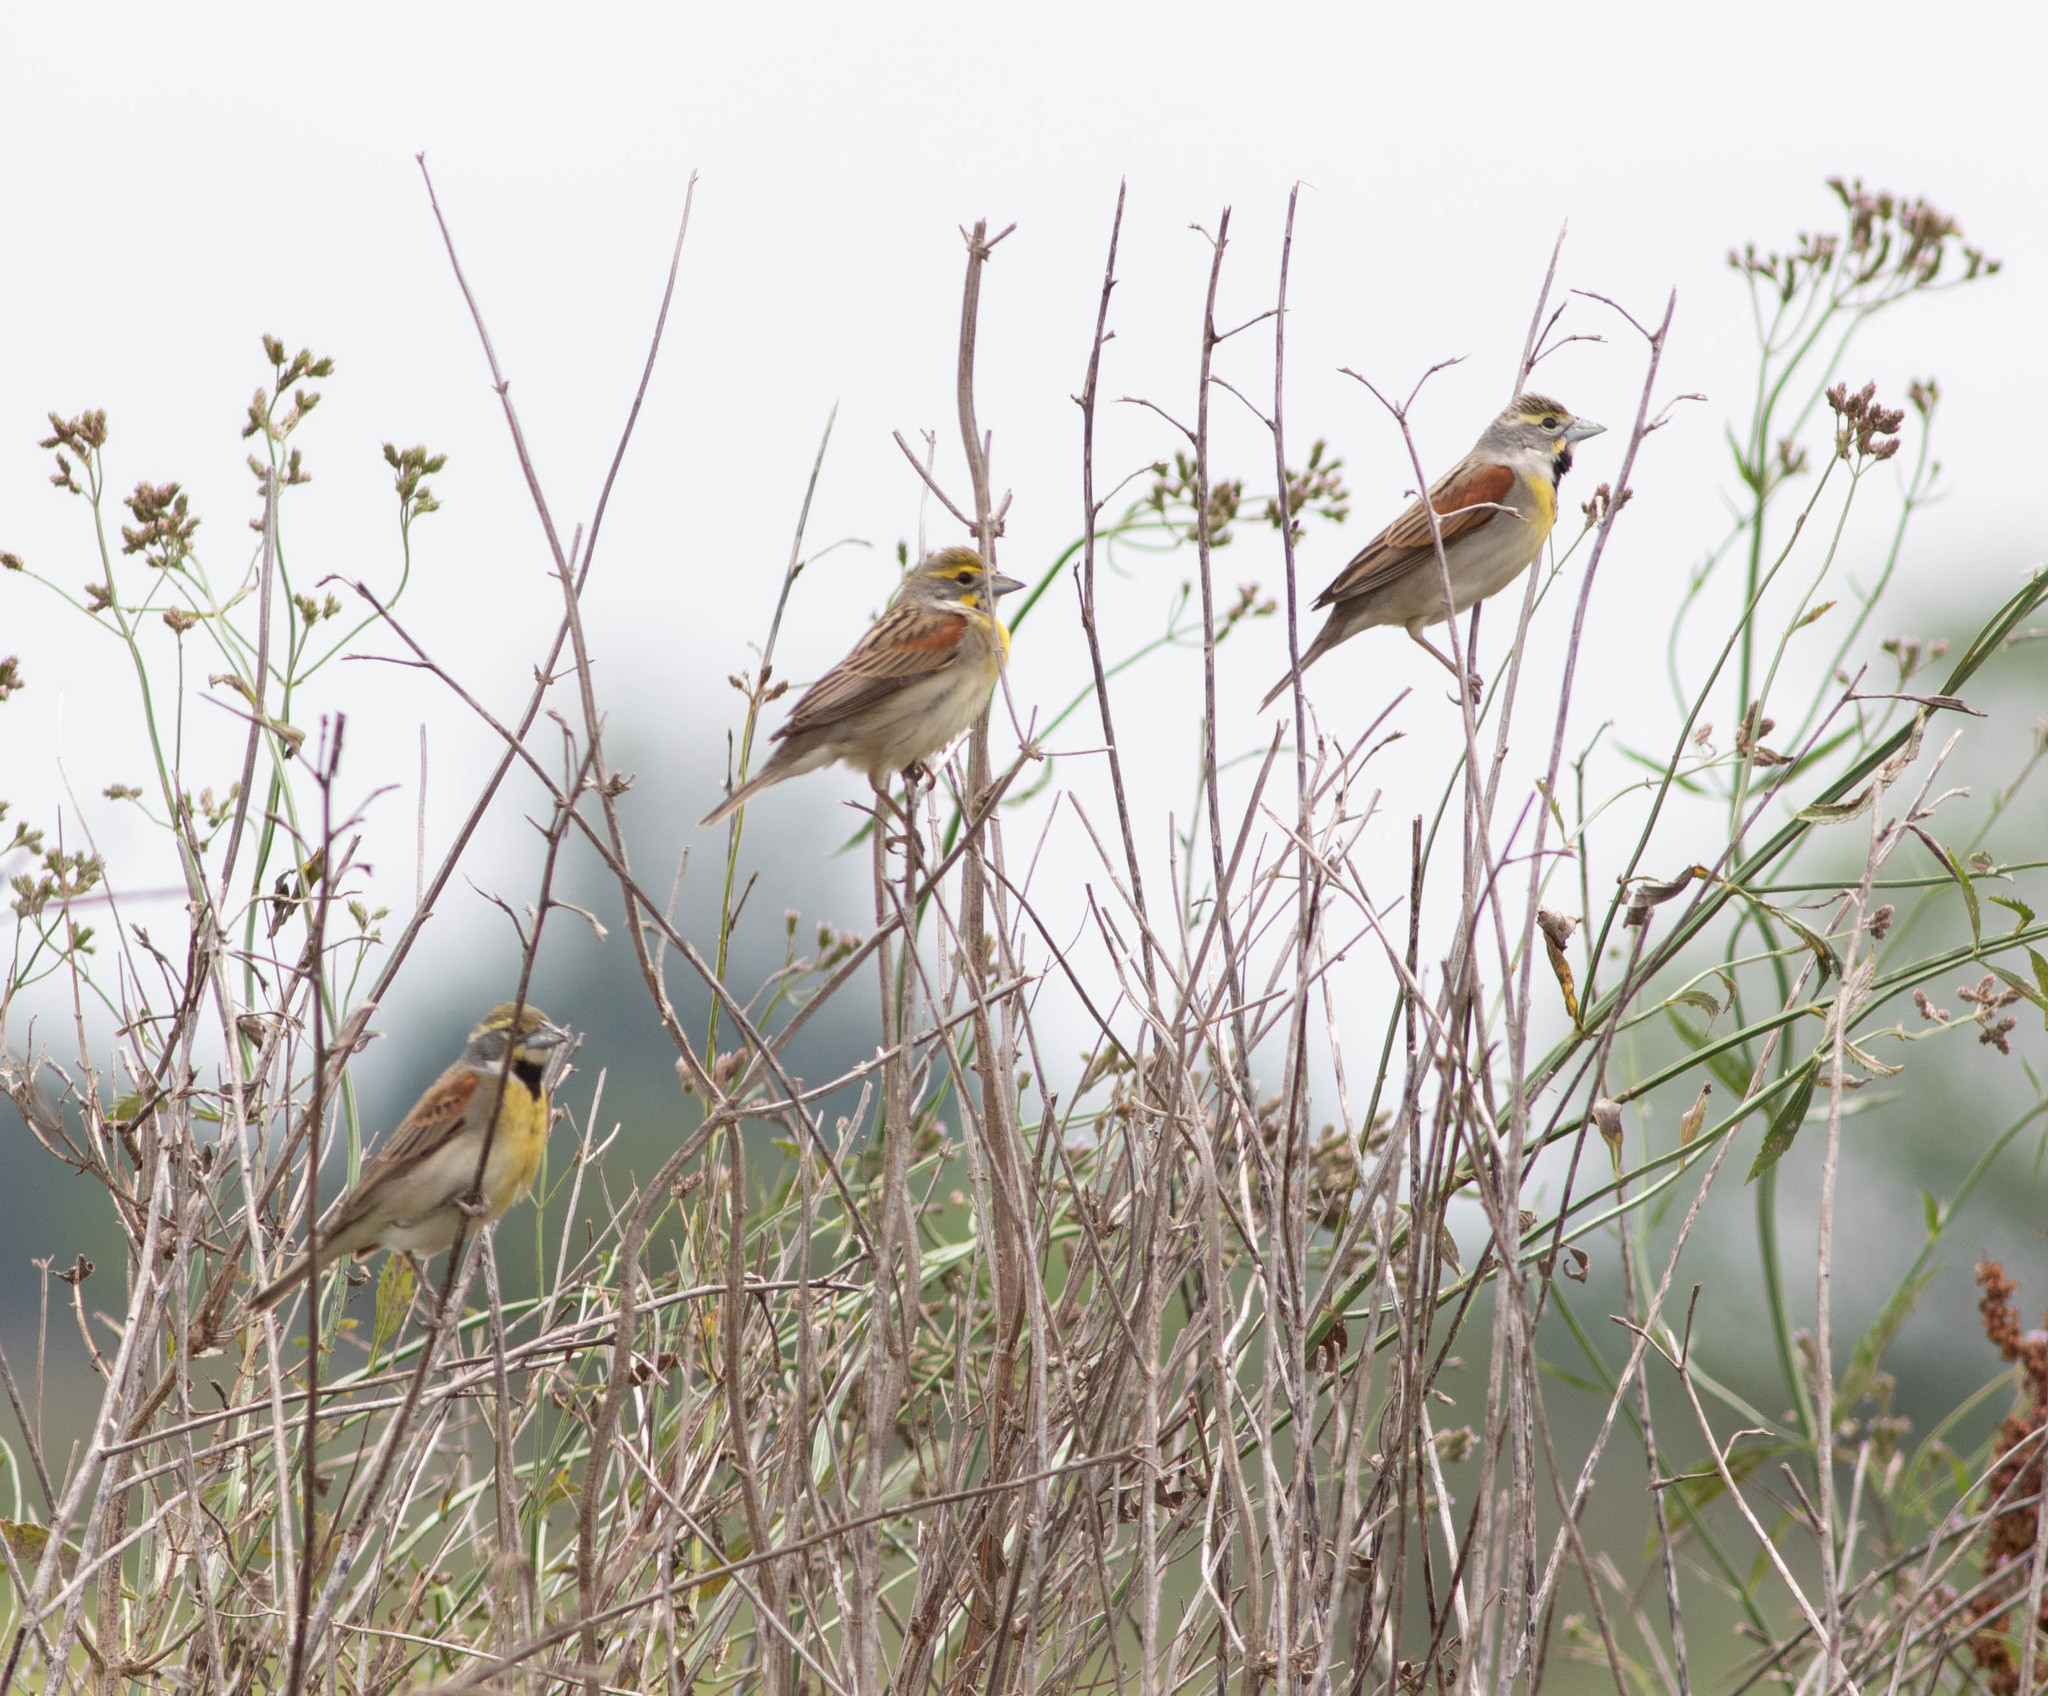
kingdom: Animalia
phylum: Chordata
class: Aves
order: Passeriformes
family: Cardinalidae
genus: Spiza
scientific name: Spiza americana
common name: Dickcissel
